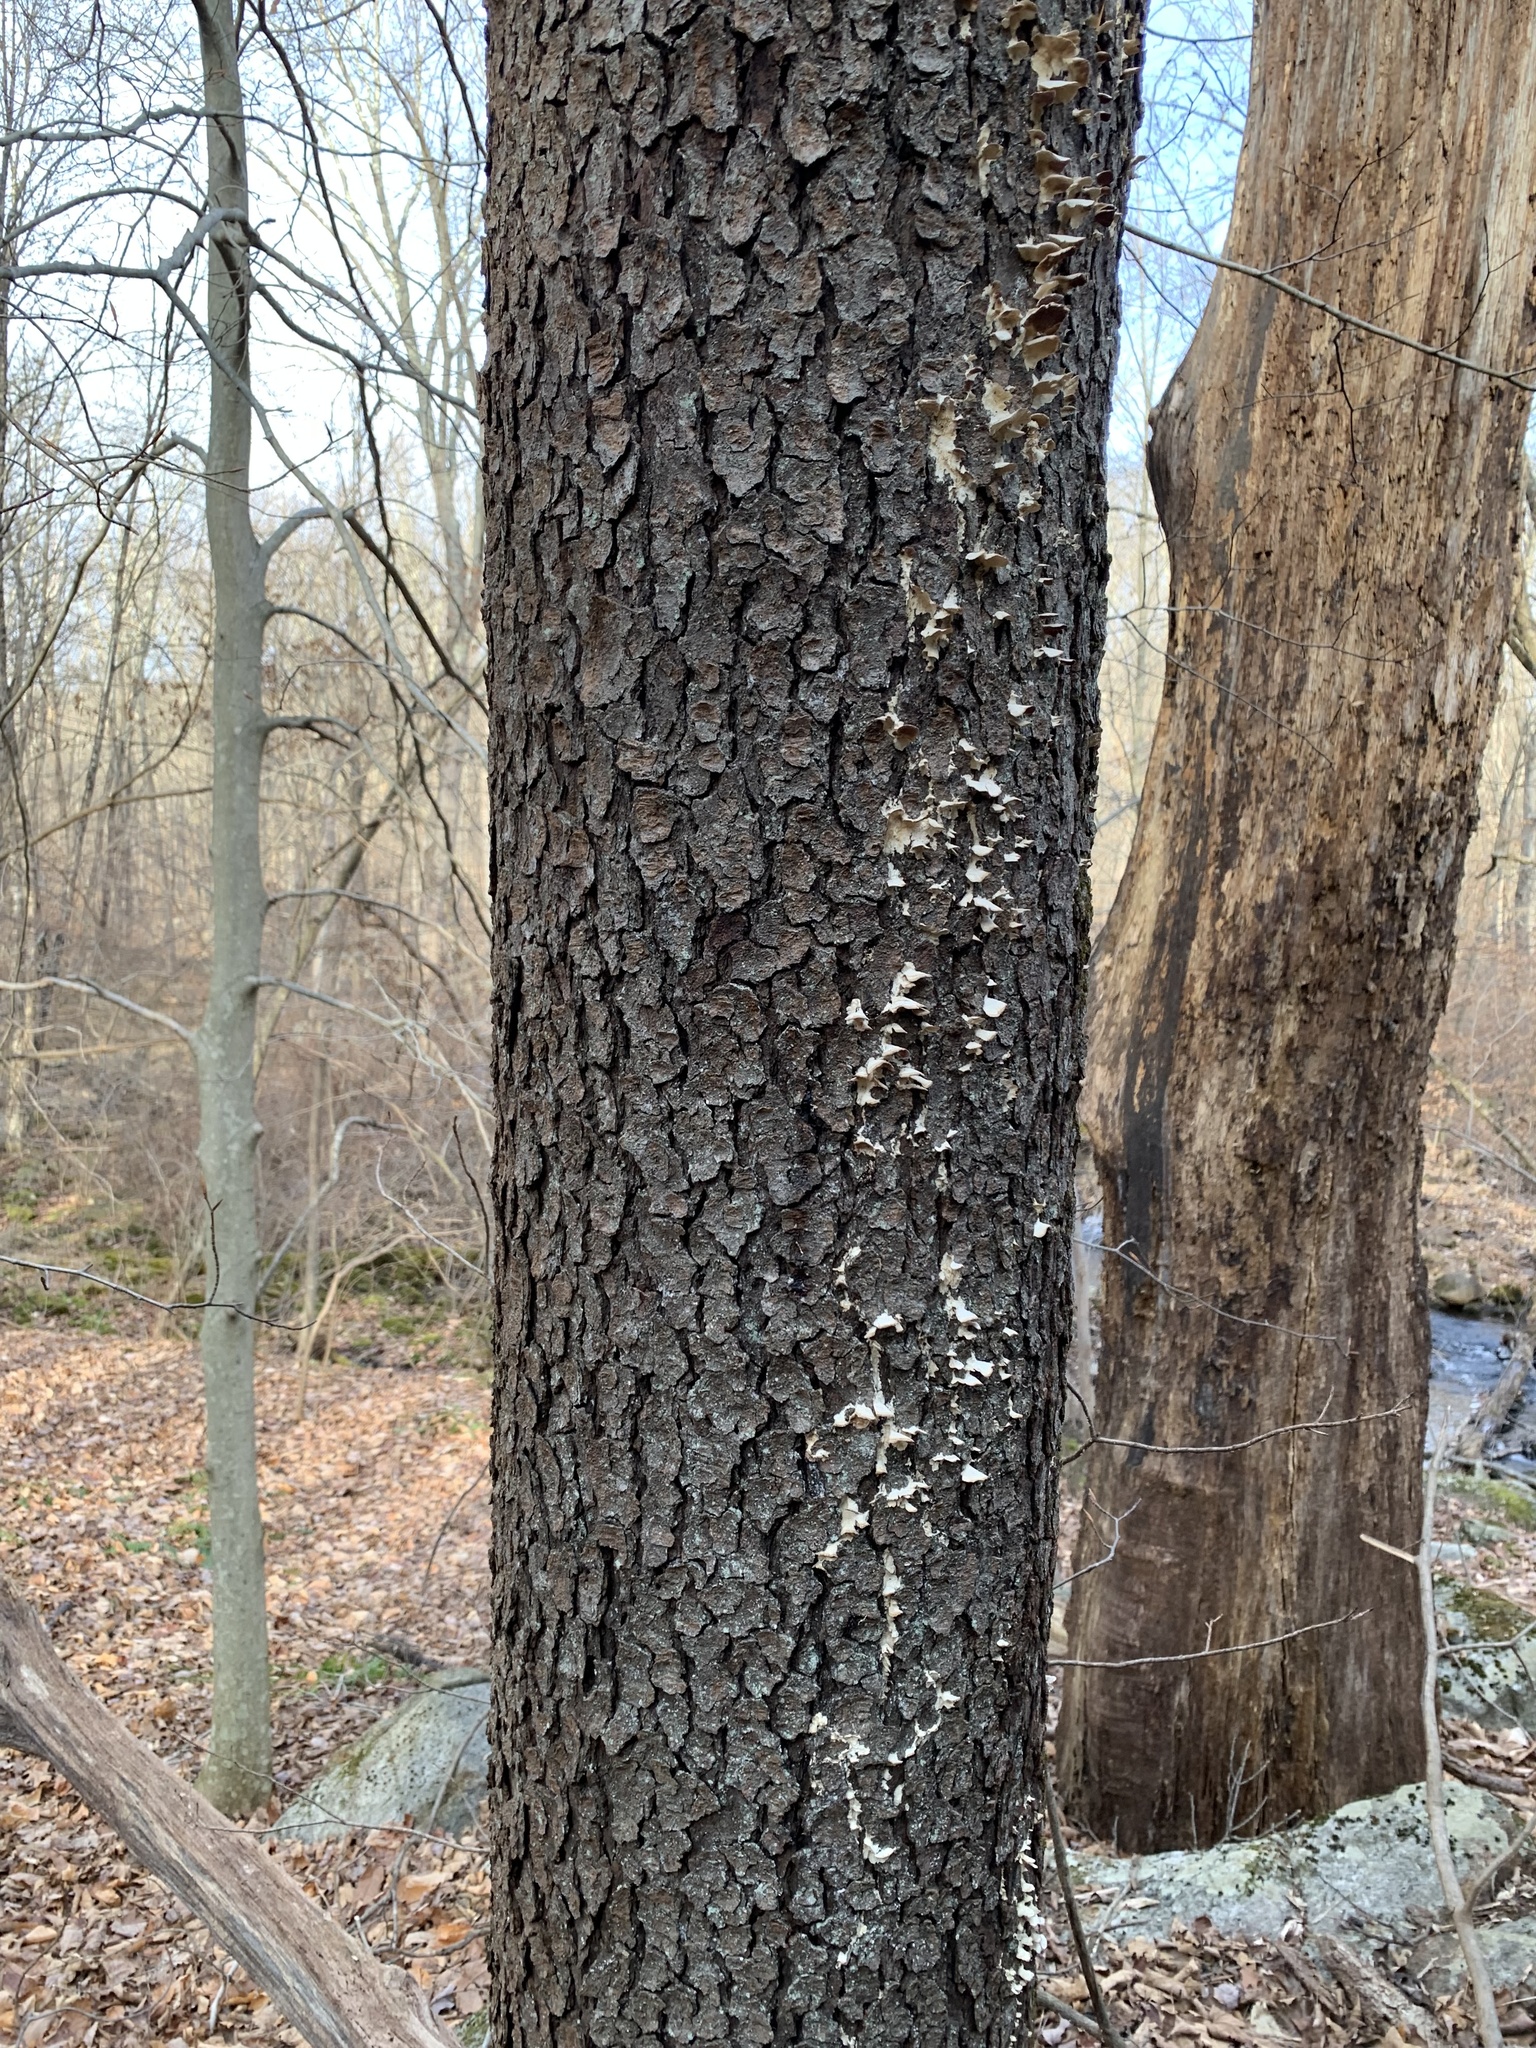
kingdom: Plantae
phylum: Tracheophyta
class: Magnoliopsida
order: Rosales
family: Rosaceae
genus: Prunus
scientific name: Prunus serotina
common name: Black cherry
